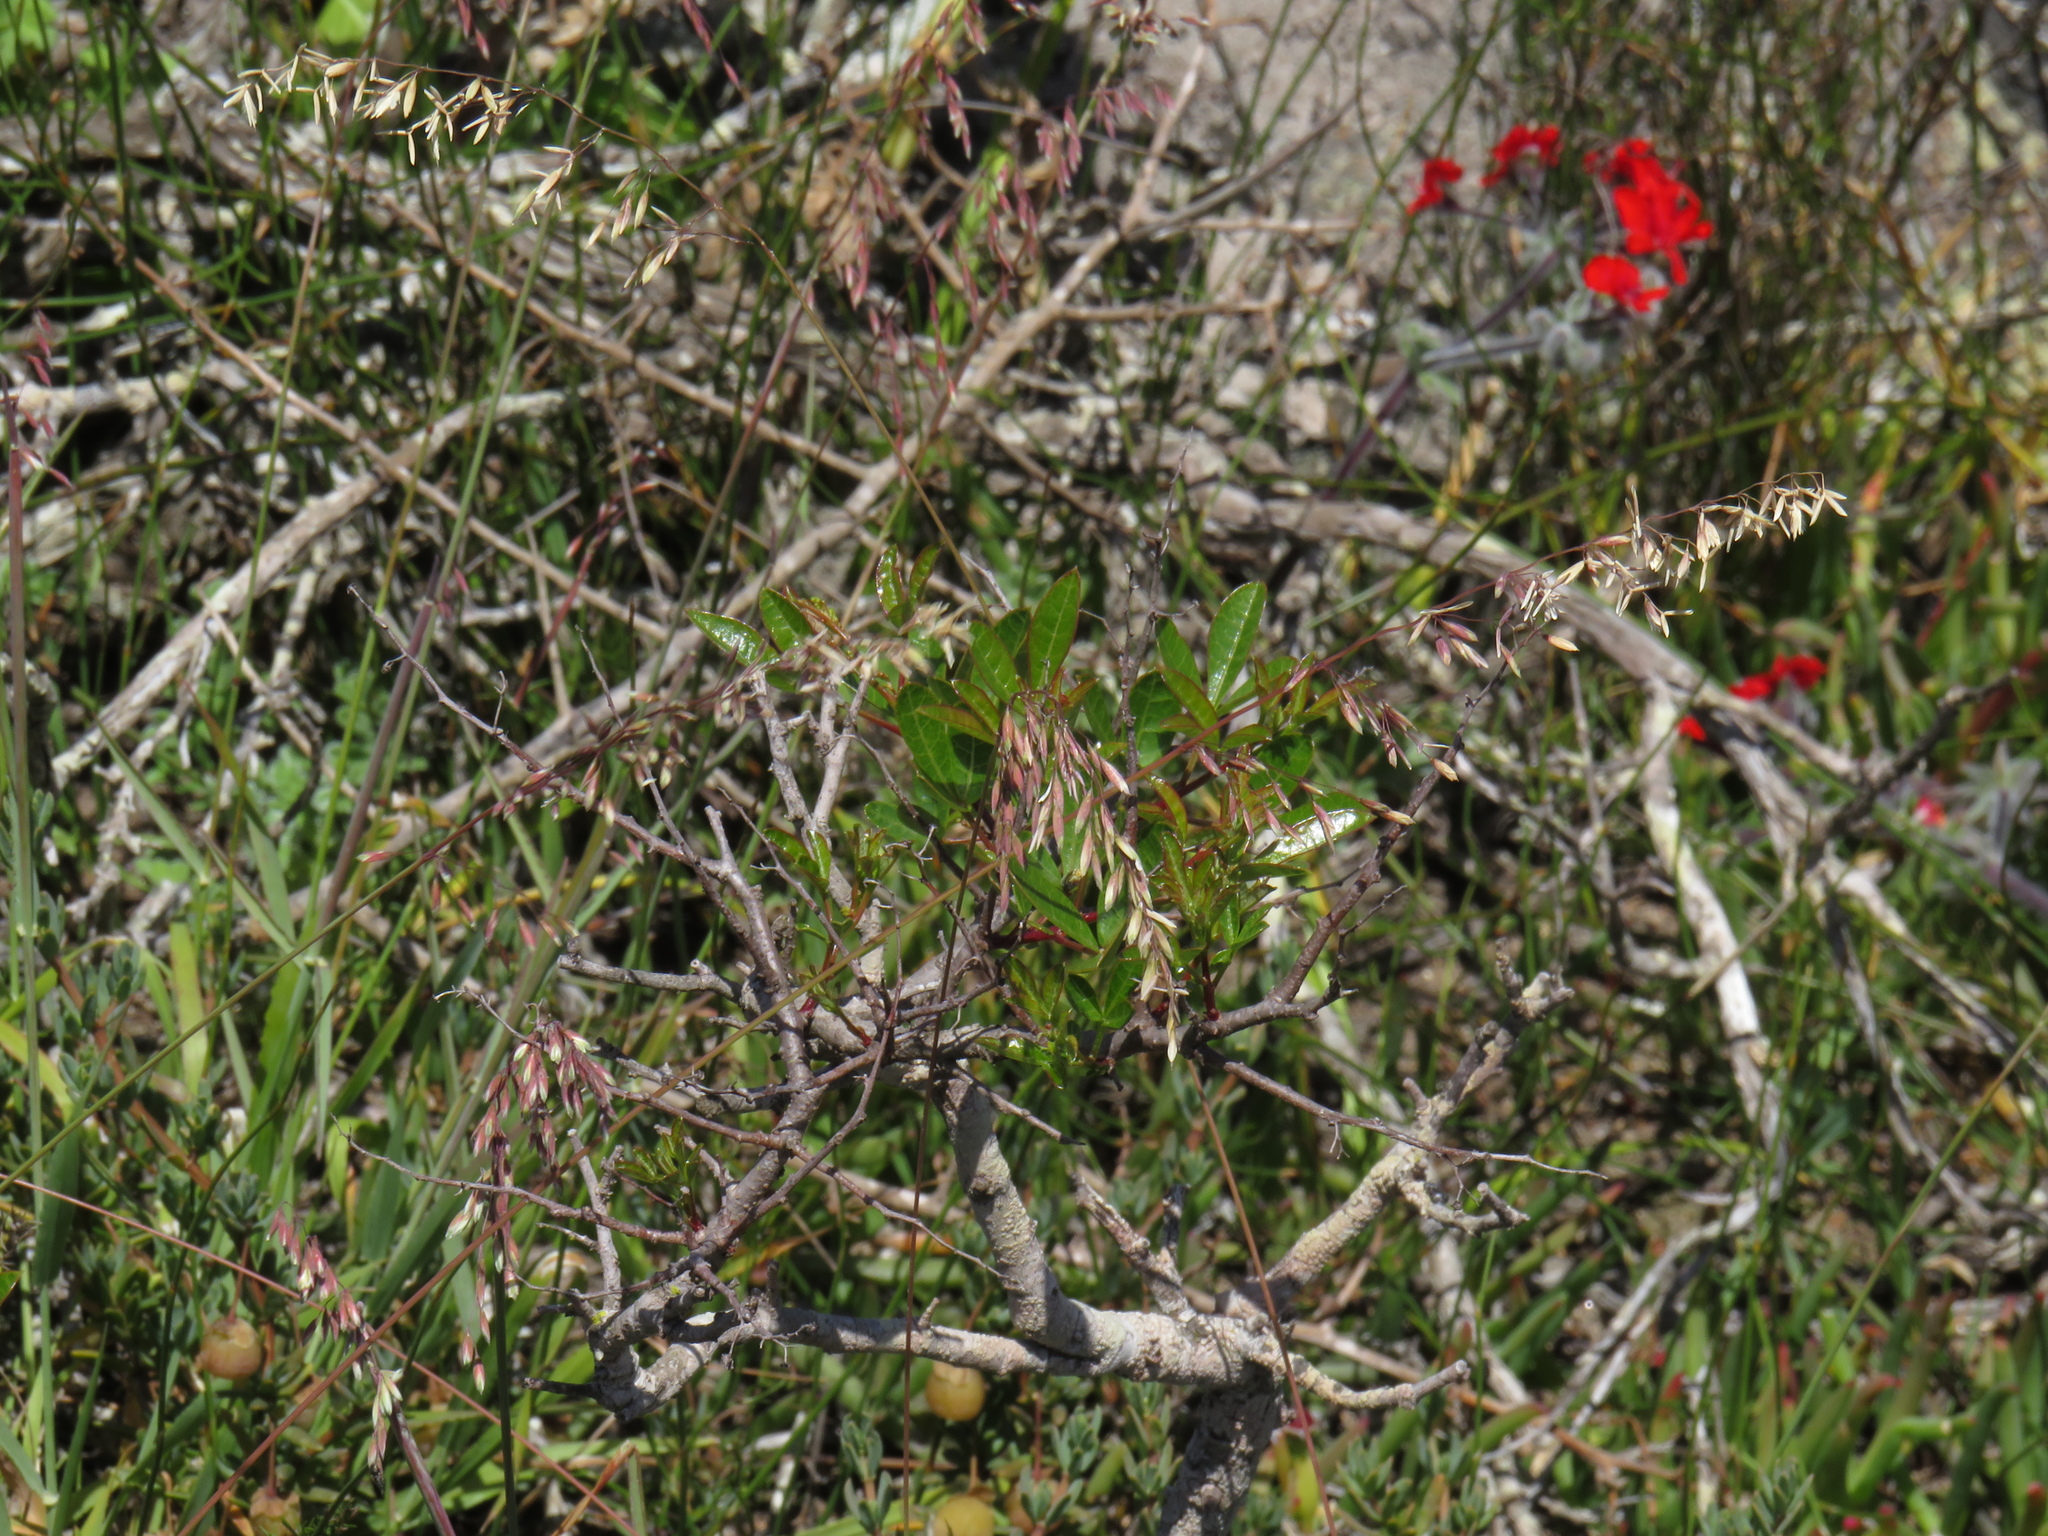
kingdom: Plantae
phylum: Tracheophyta
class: Magnoliopsida
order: Sapindales
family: Anacardiaceae
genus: Searsia
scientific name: Searsia laevigata
